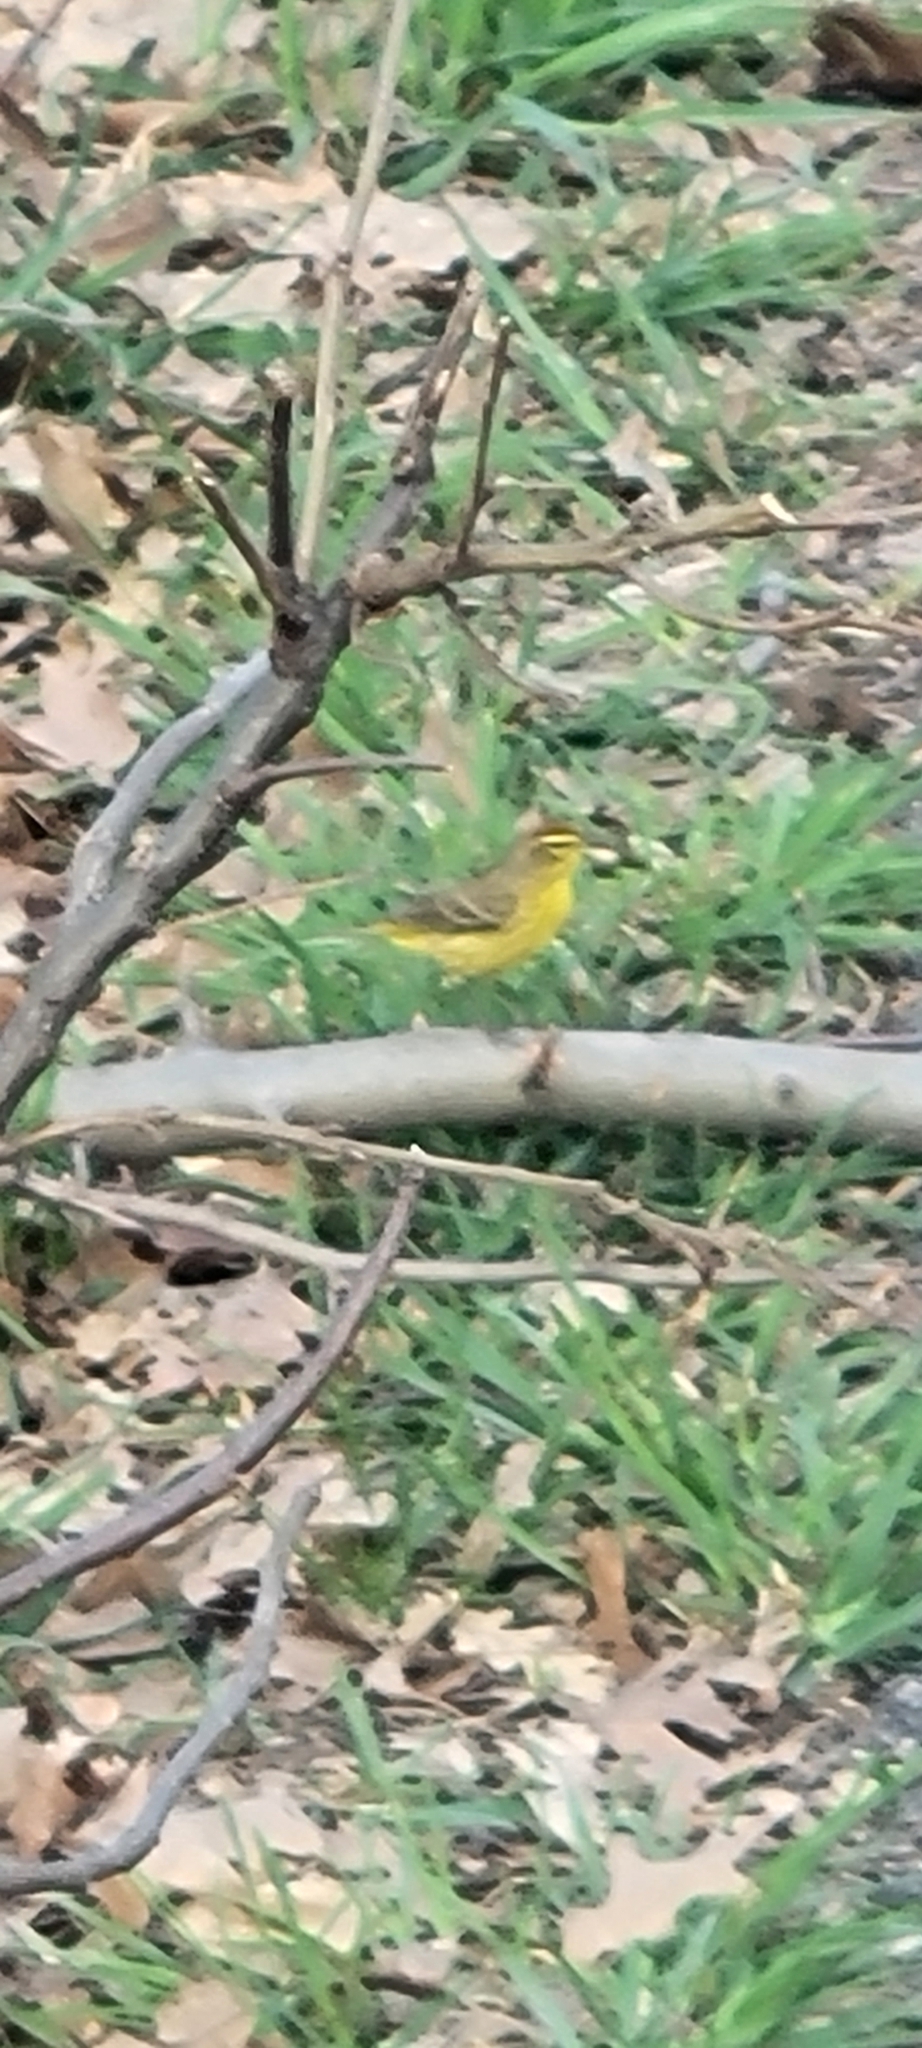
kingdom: Animalia
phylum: Chordata
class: Aves
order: Passeriformes
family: Parulidae
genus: Setophaga
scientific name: Setophaga palmarum
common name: Palm warbler
